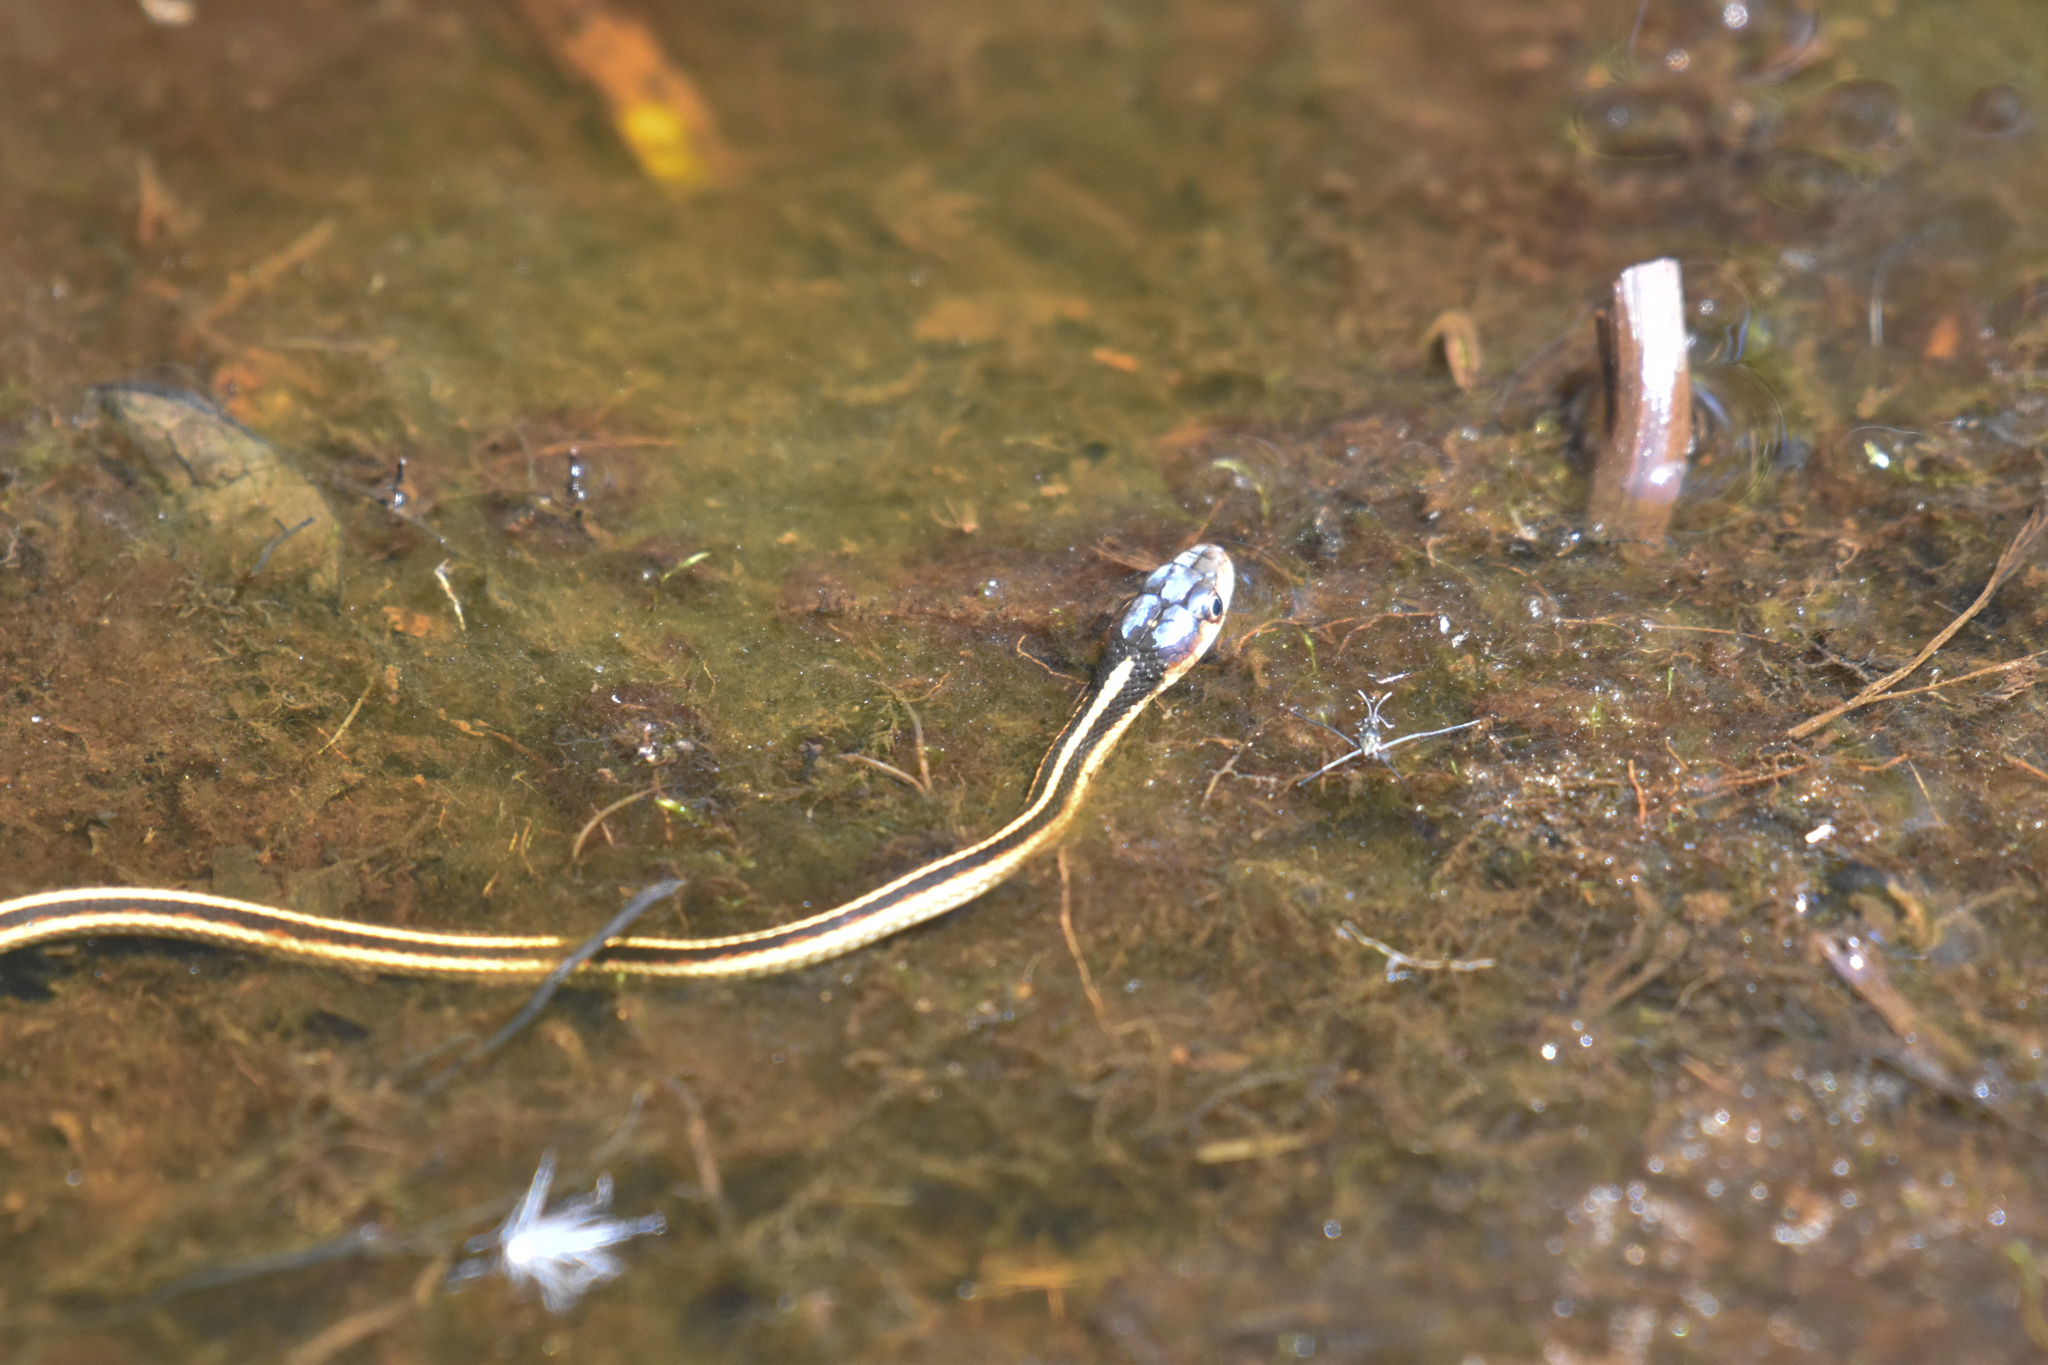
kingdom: Animalia
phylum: Chordata
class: Squamata
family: Colubridae
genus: Thamnophis
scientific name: Thamnophis sirtalis
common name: Common garter snake
